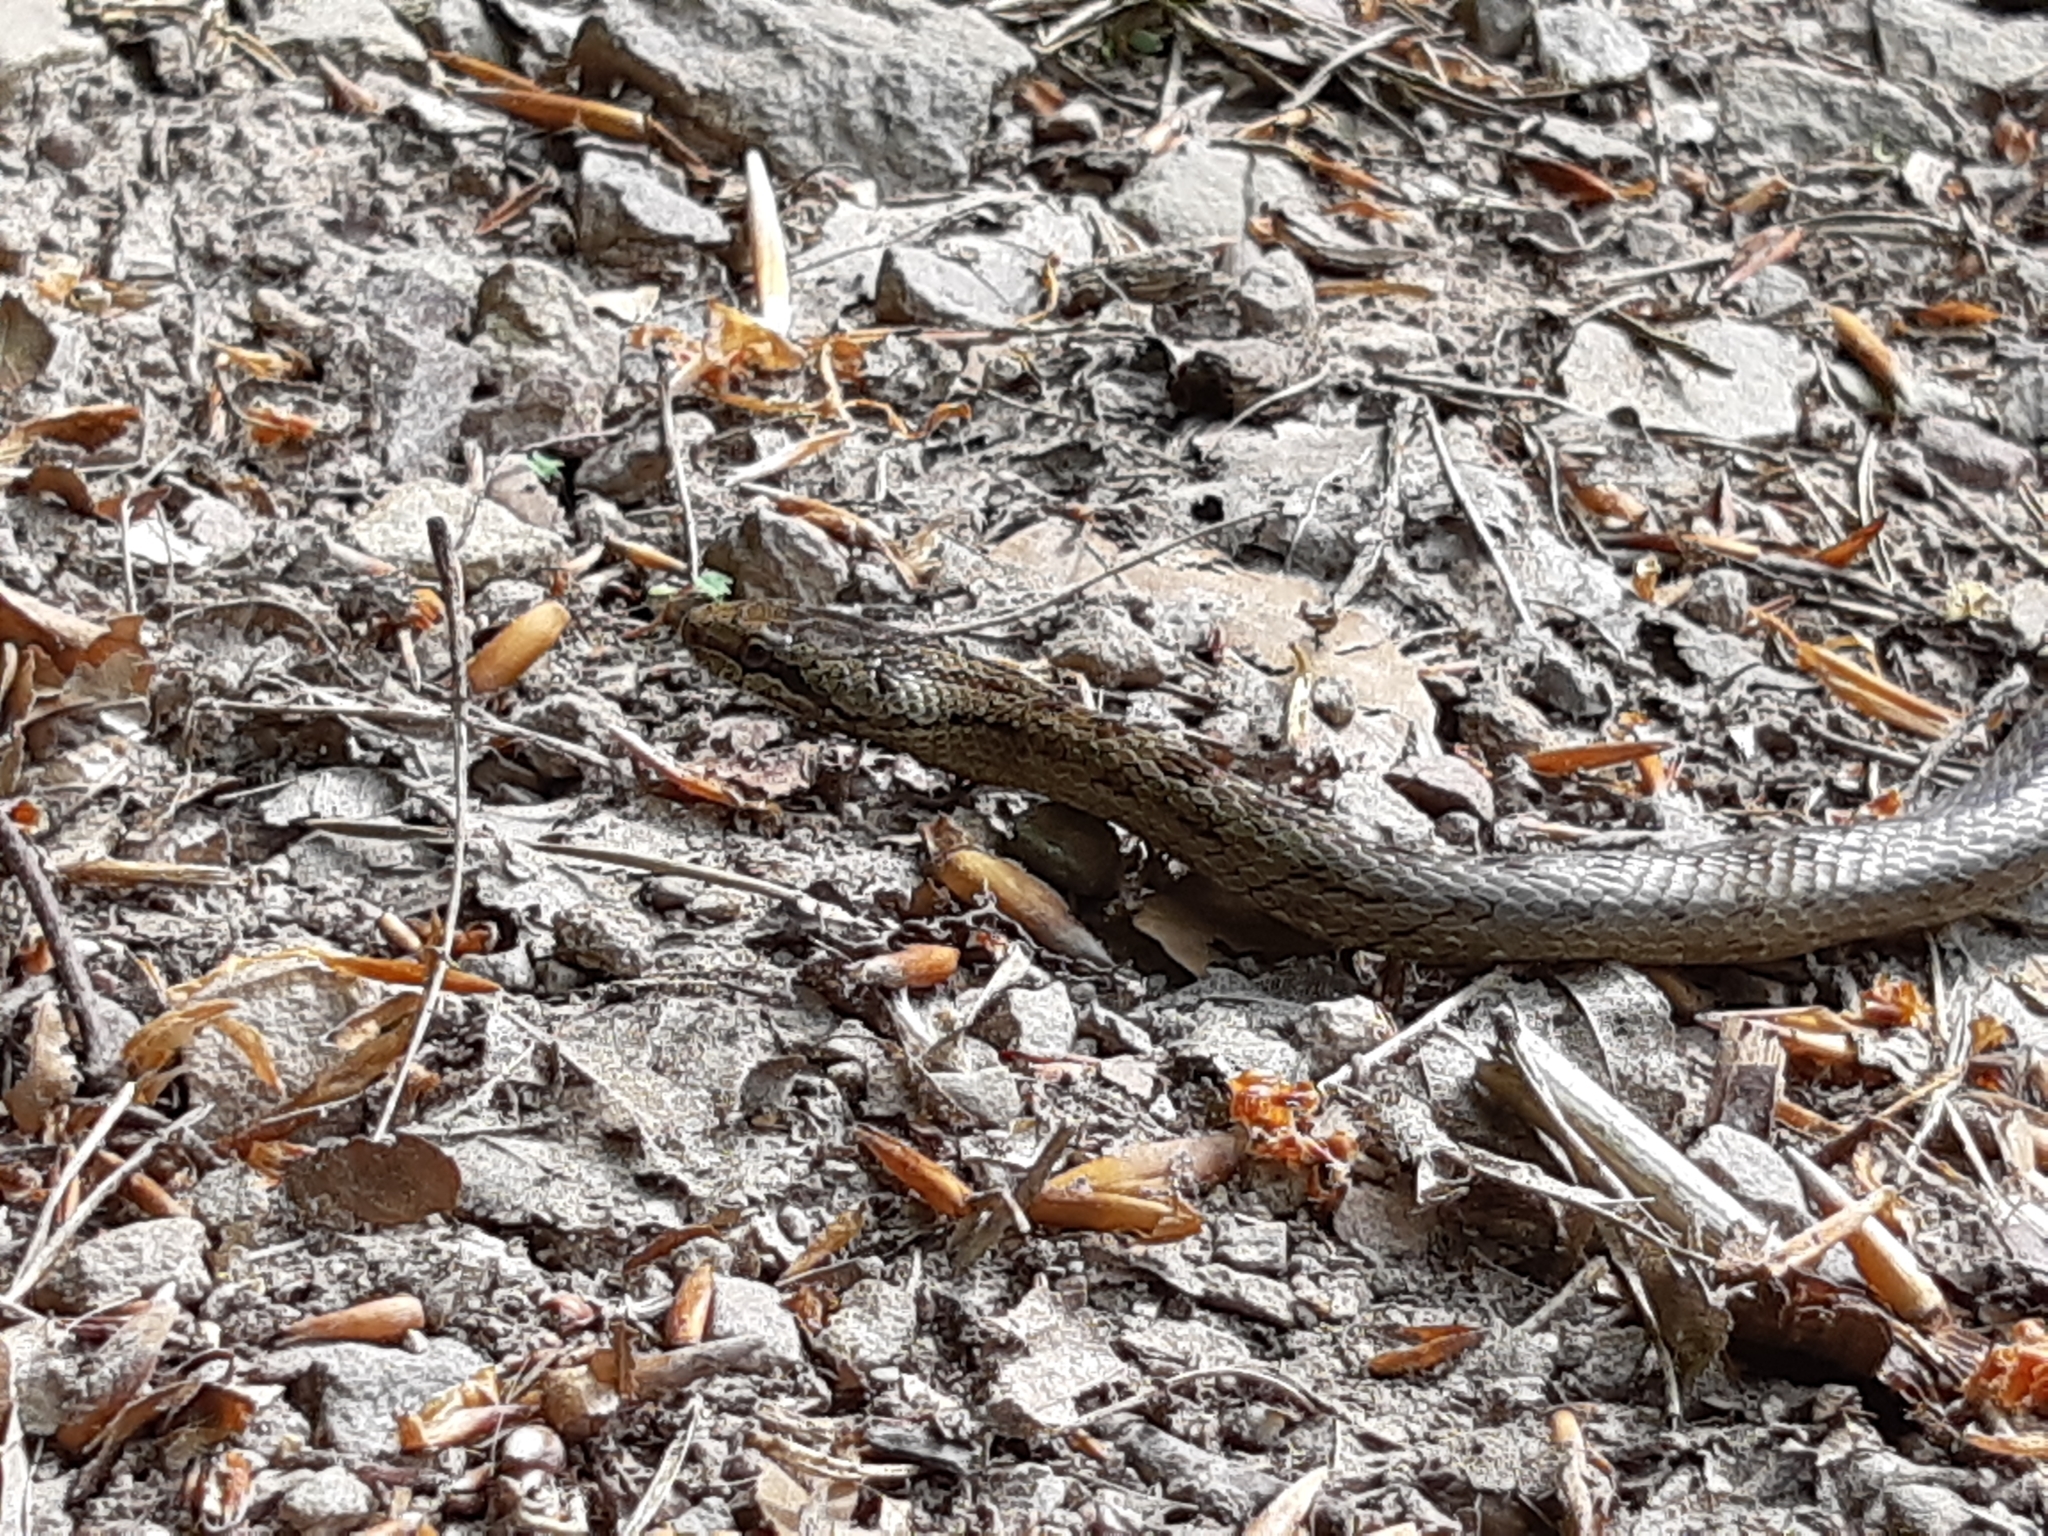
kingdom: Animalia
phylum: Chordata
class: Squamata
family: Colubridae
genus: Coronella
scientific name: Coronella austriaca
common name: Smooth snake
